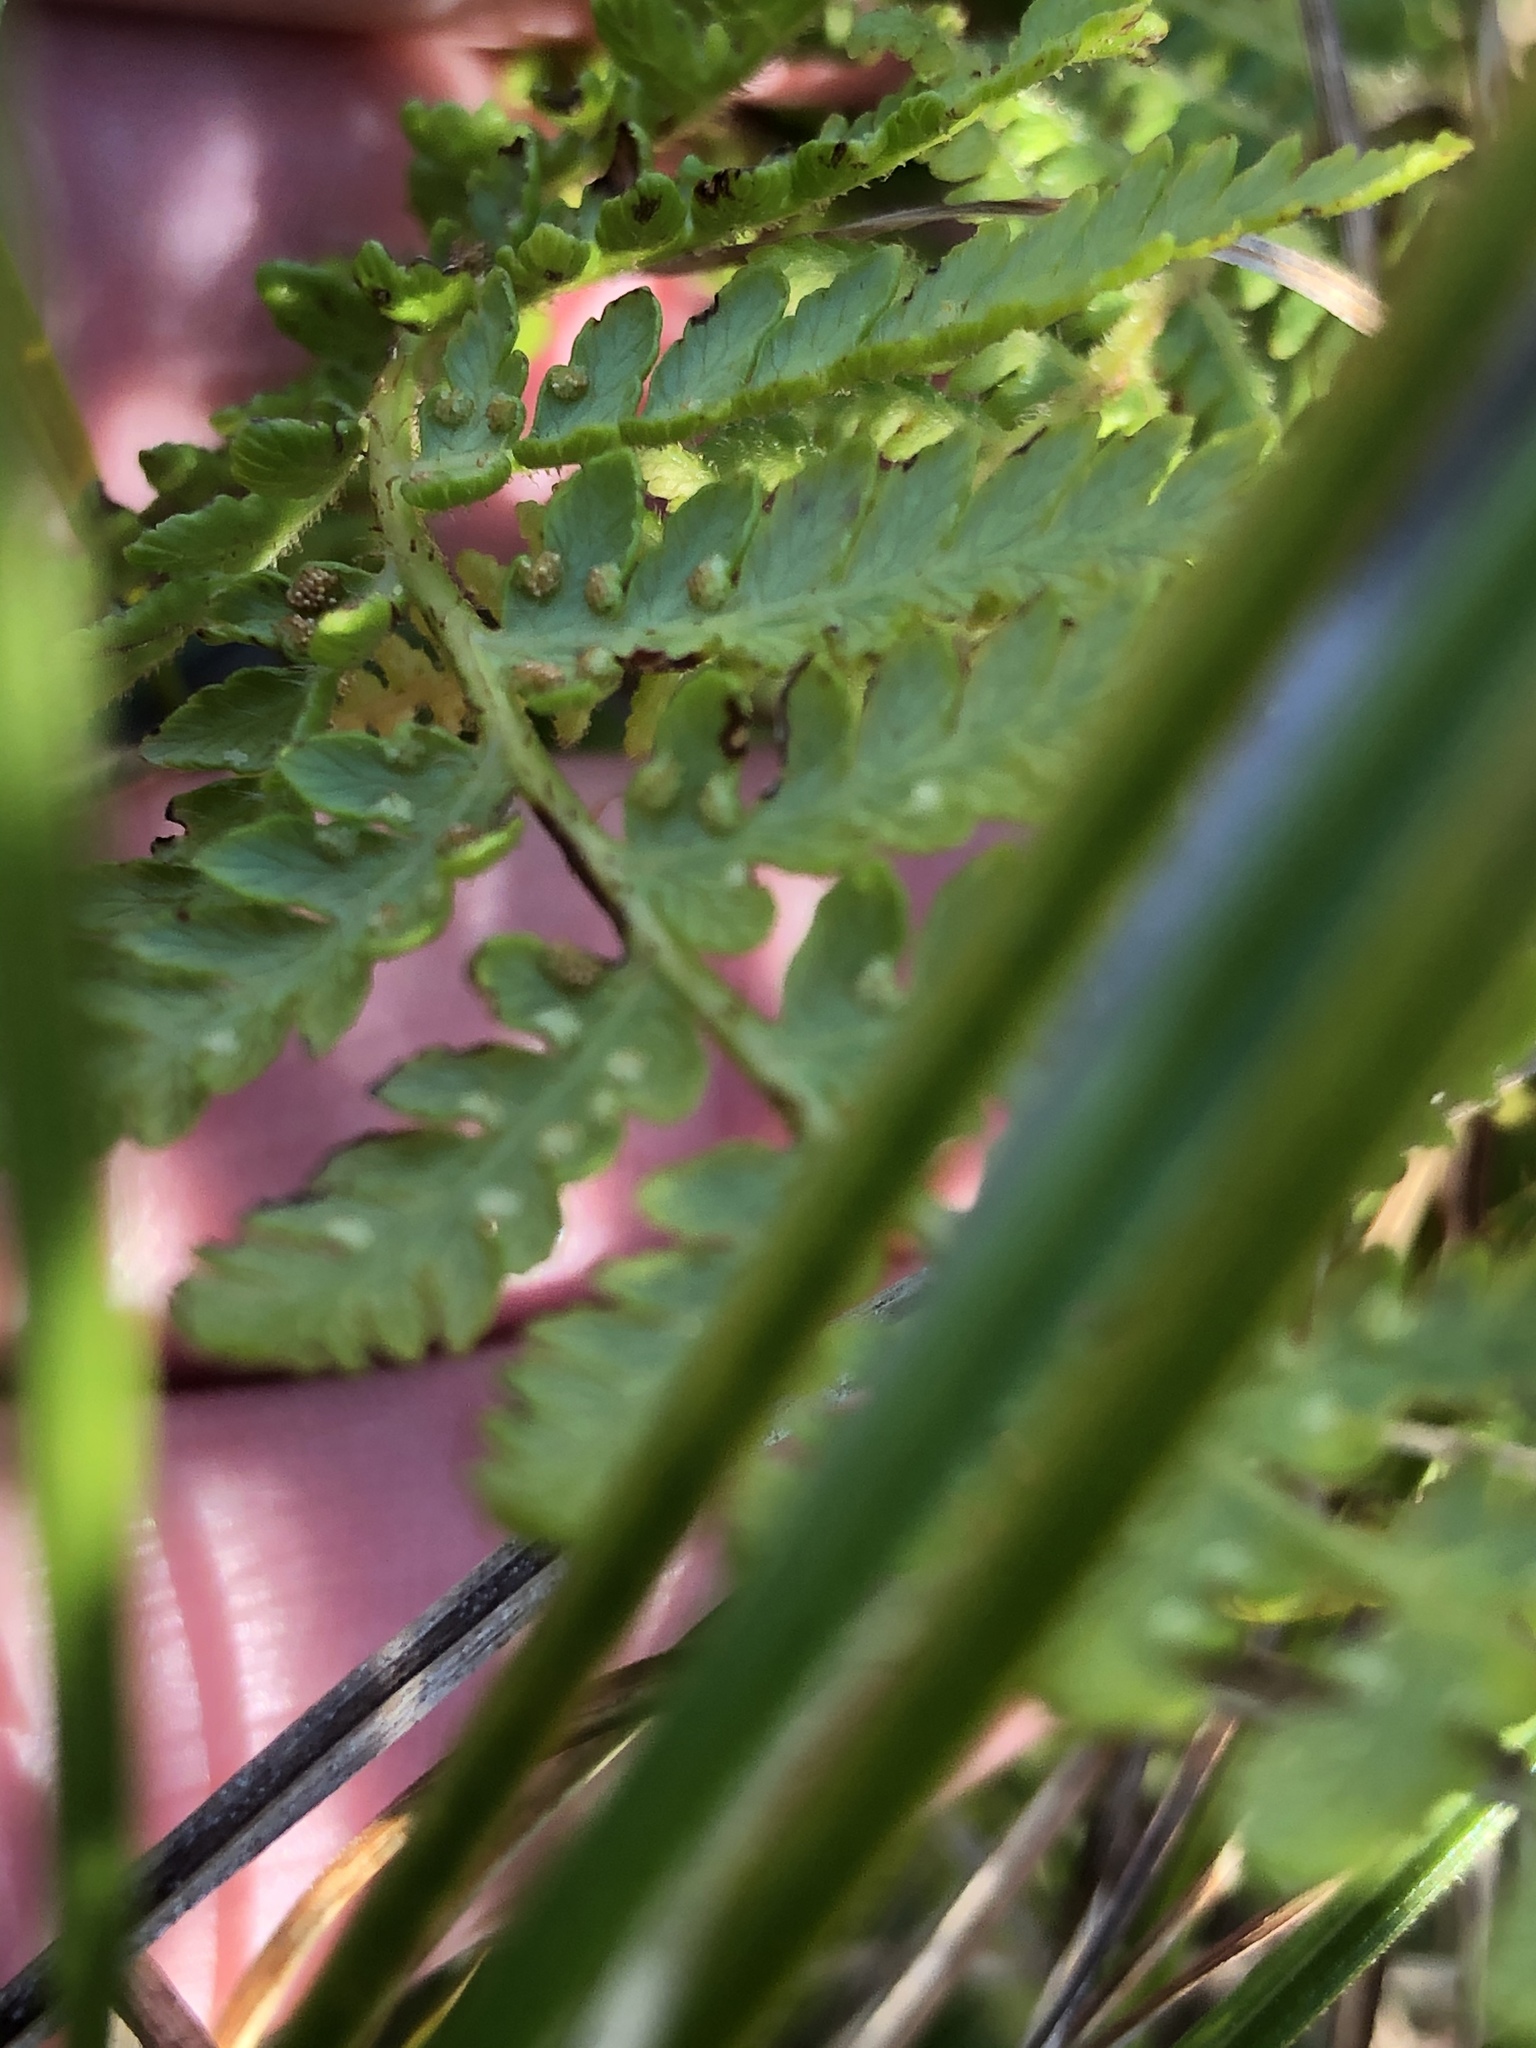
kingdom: Plantae
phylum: Tracheophyta
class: Polypodiopsida
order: Polypodiales
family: Dennstaedtiaceae
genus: Hypolepis
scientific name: Hypolepis ambigua
